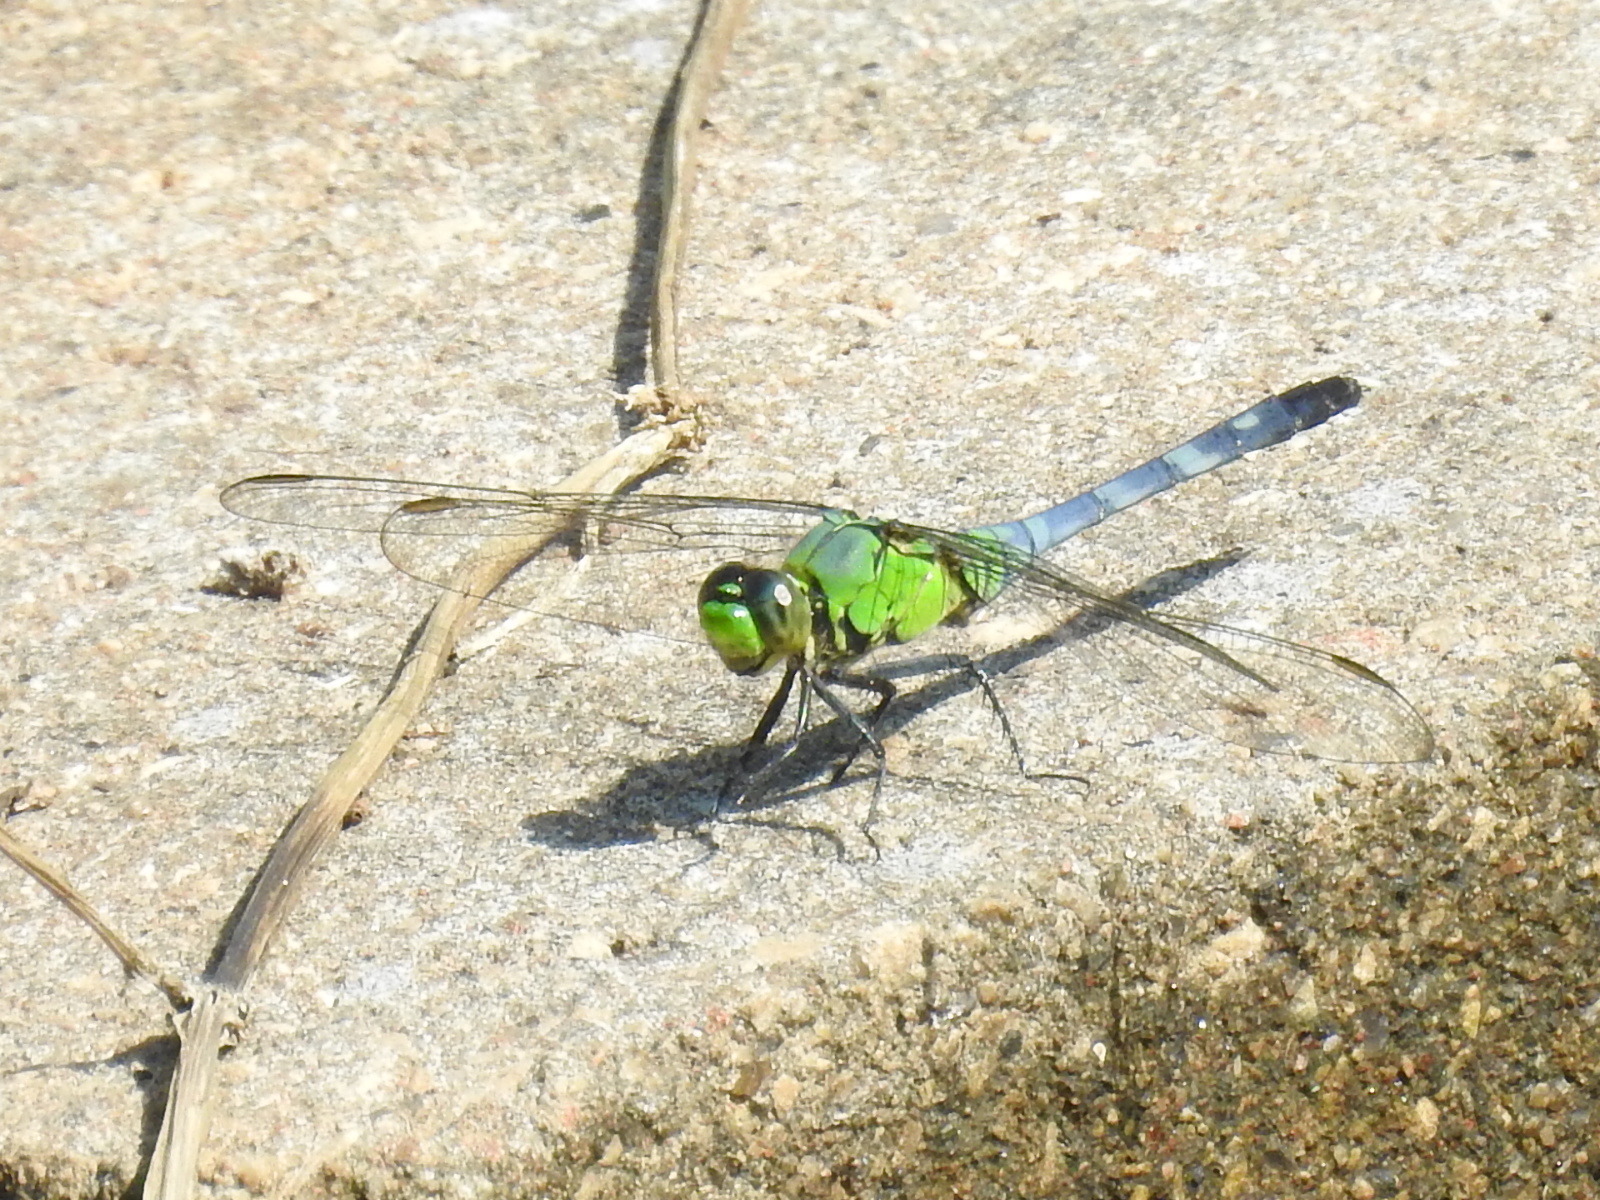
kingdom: Animalia
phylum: Arthropoda
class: Insecta
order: Odonata
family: Libellulidae
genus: Erythemis
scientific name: Erythemis simplicicollis
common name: Eastern pondhawk
